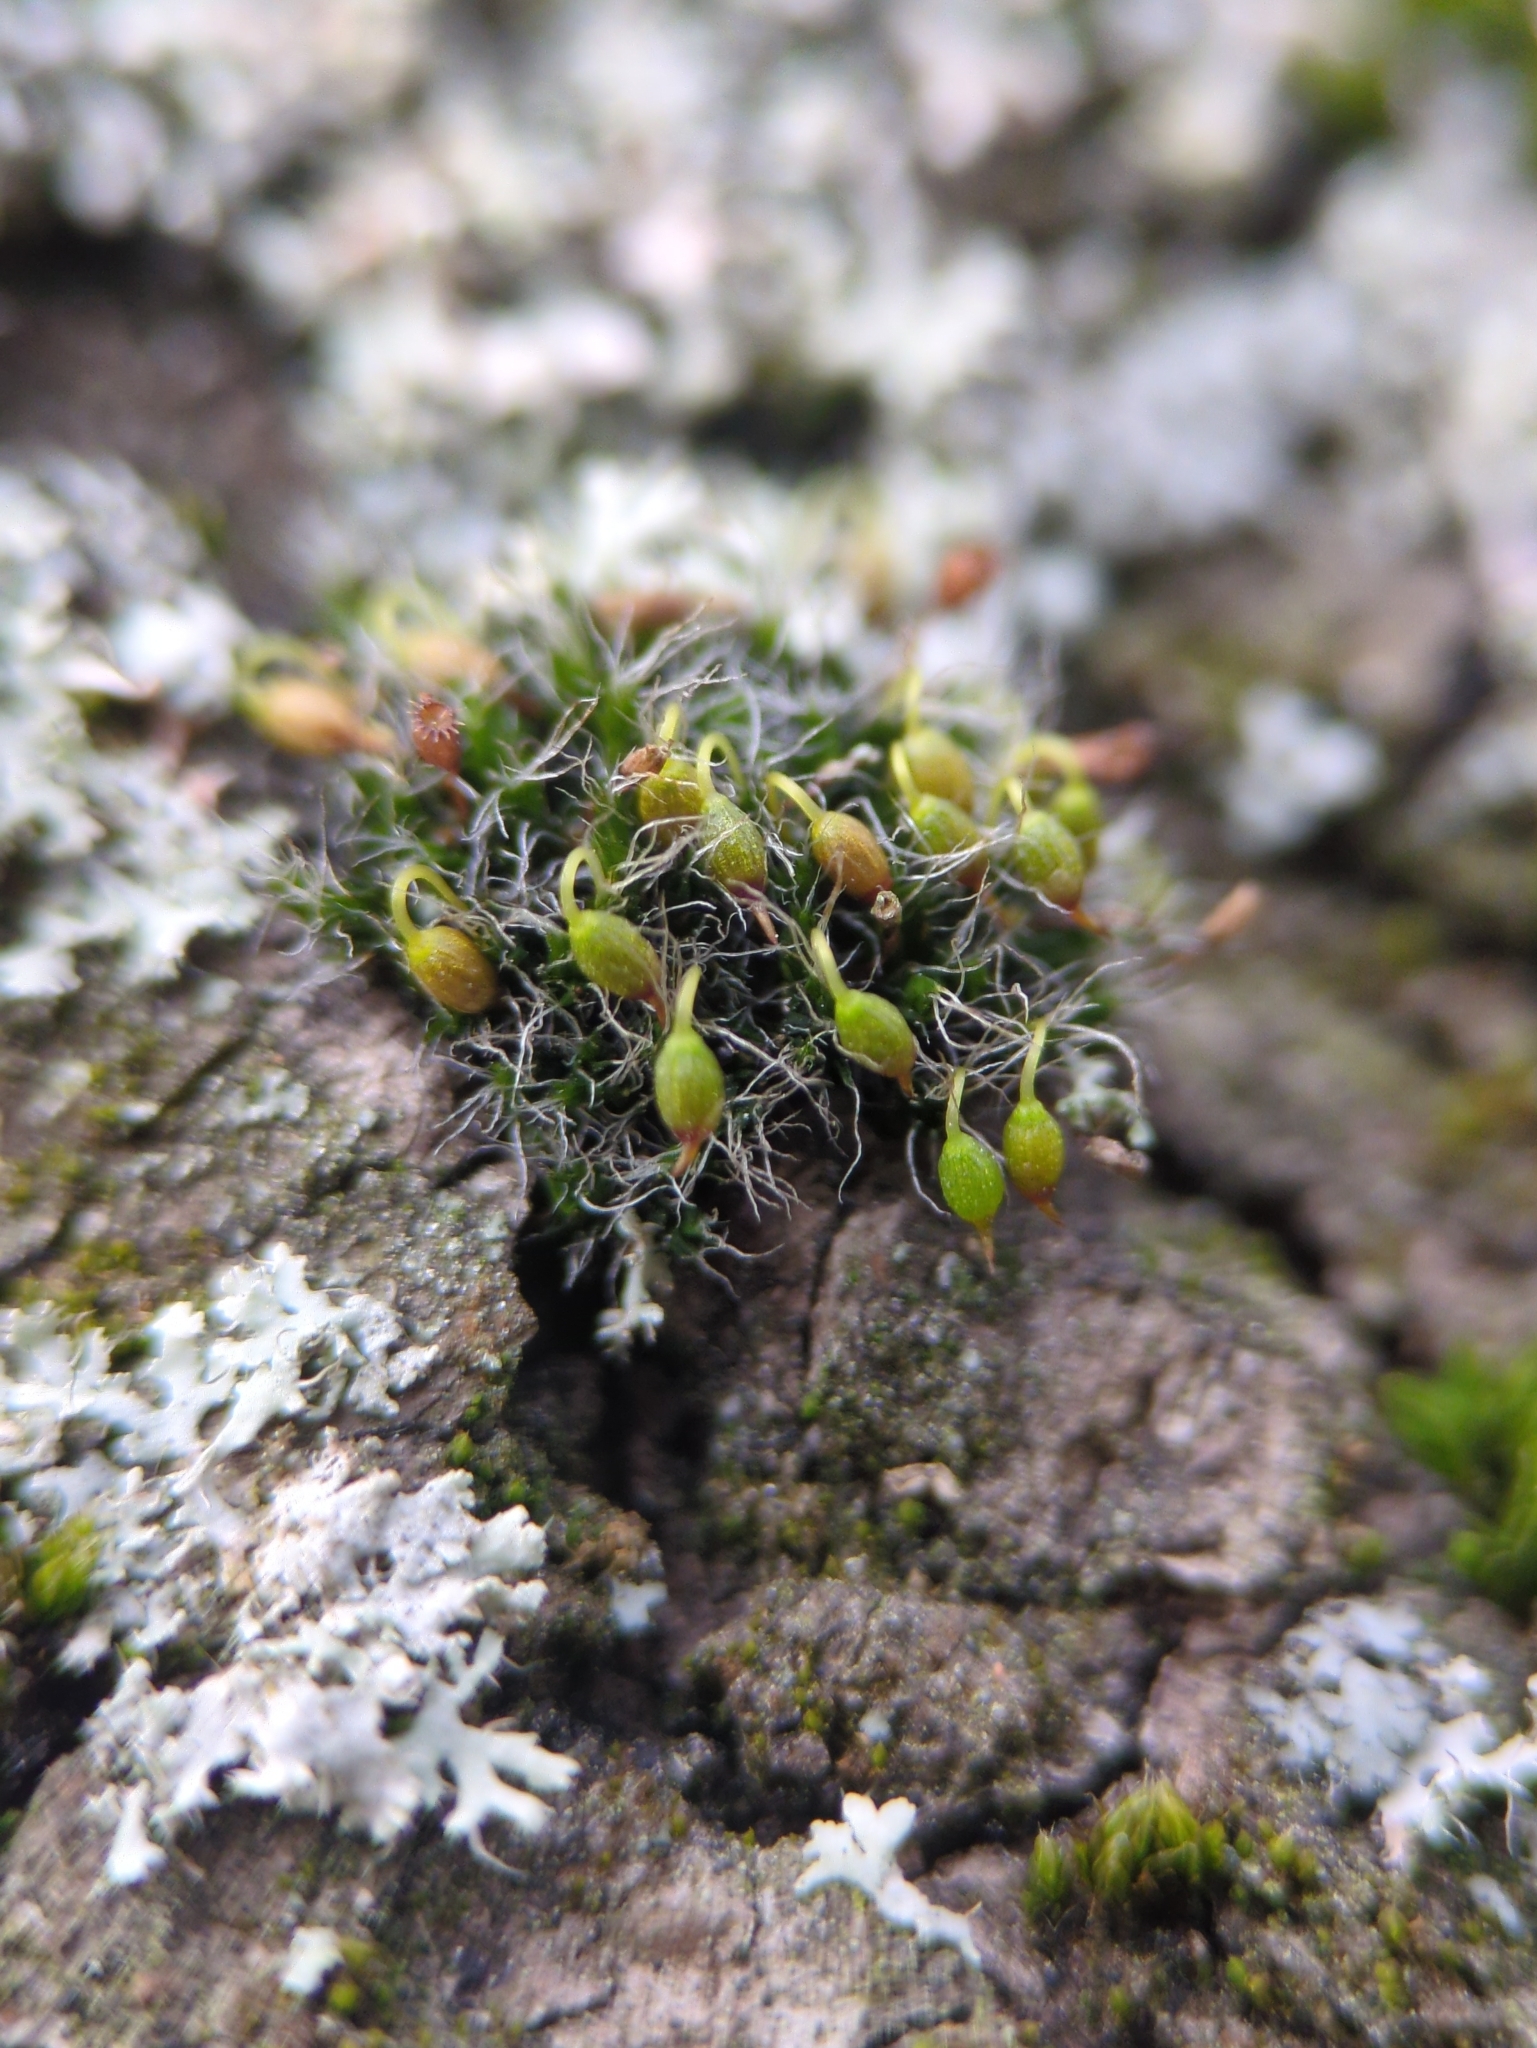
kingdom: Plantae
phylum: Bryophyta
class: Bryopsida
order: Grimmiales
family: Grimmiaceae
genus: Grimmia
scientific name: Grimmia pulvinata
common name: Grey-cushioned grimmia
